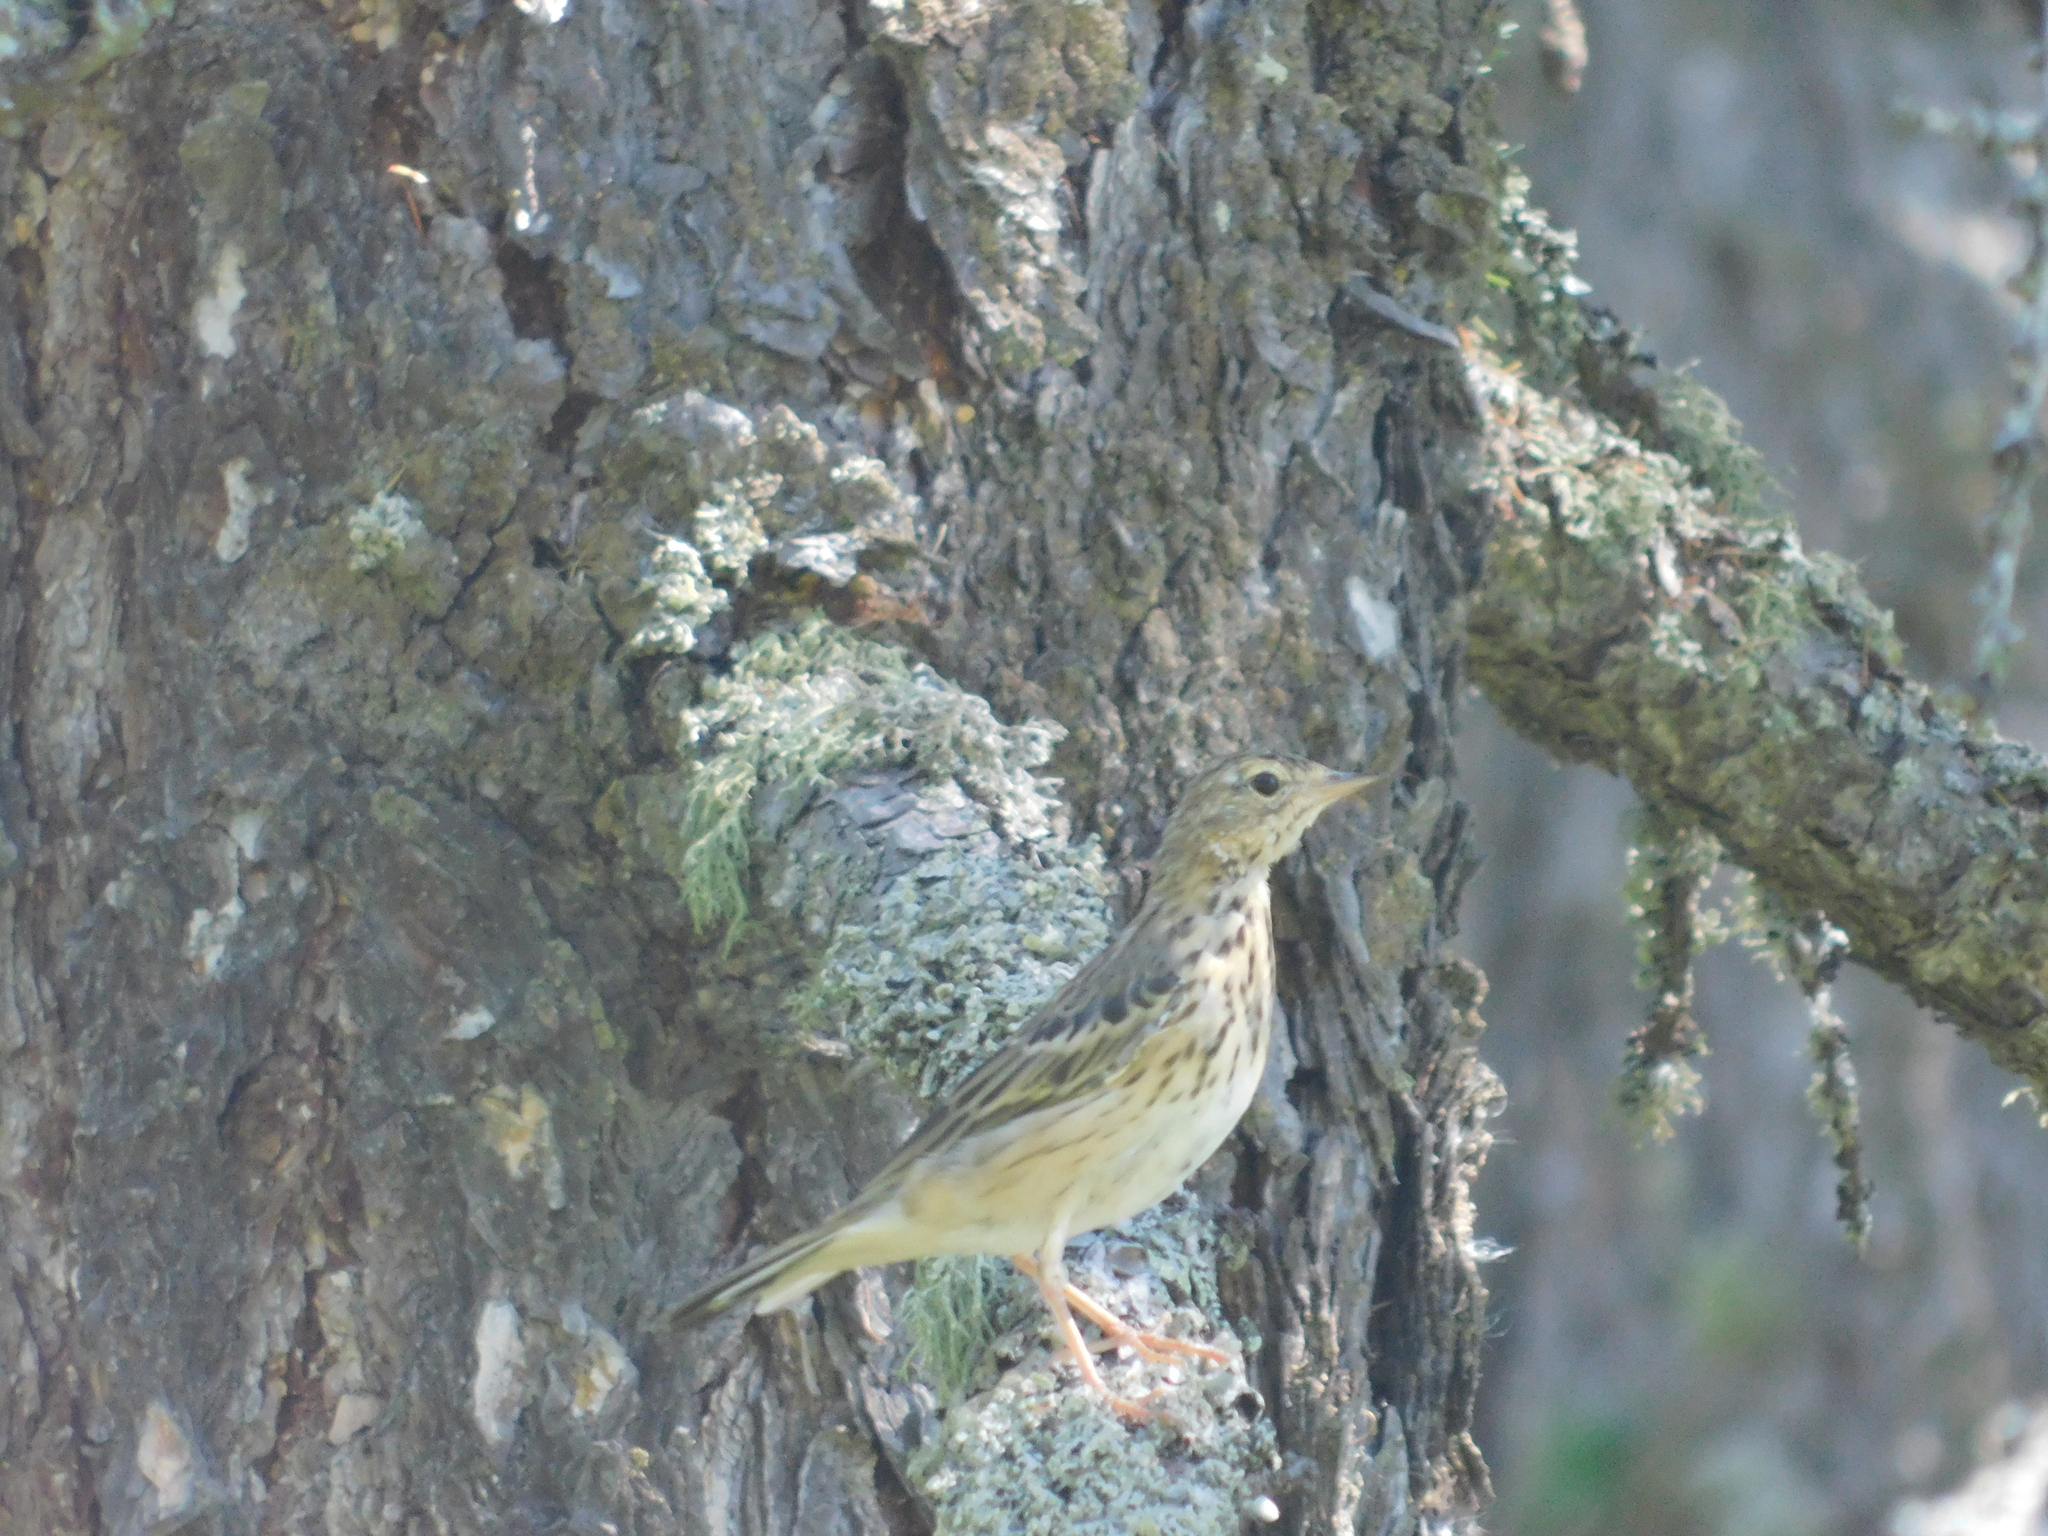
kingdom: Animalia
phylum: Chordata
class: Aves
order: Passeriformes
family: Motacillidae
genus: Anthus
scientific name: Anthus trivialis
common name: Tree pipit
